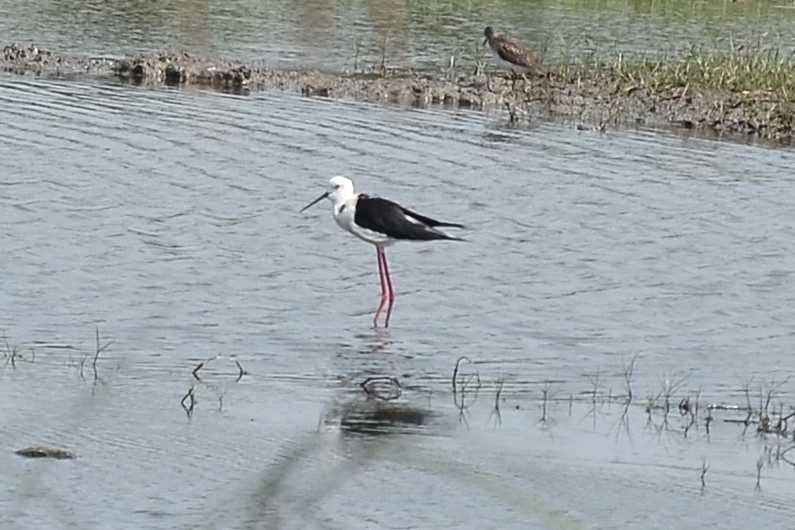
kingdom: Animalia
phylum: Chordata
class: Aves
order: Charadriiformes
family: Recurvirostridae
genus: Himantopus
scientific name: Himantopus himantopus
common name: Black-winged stilt
